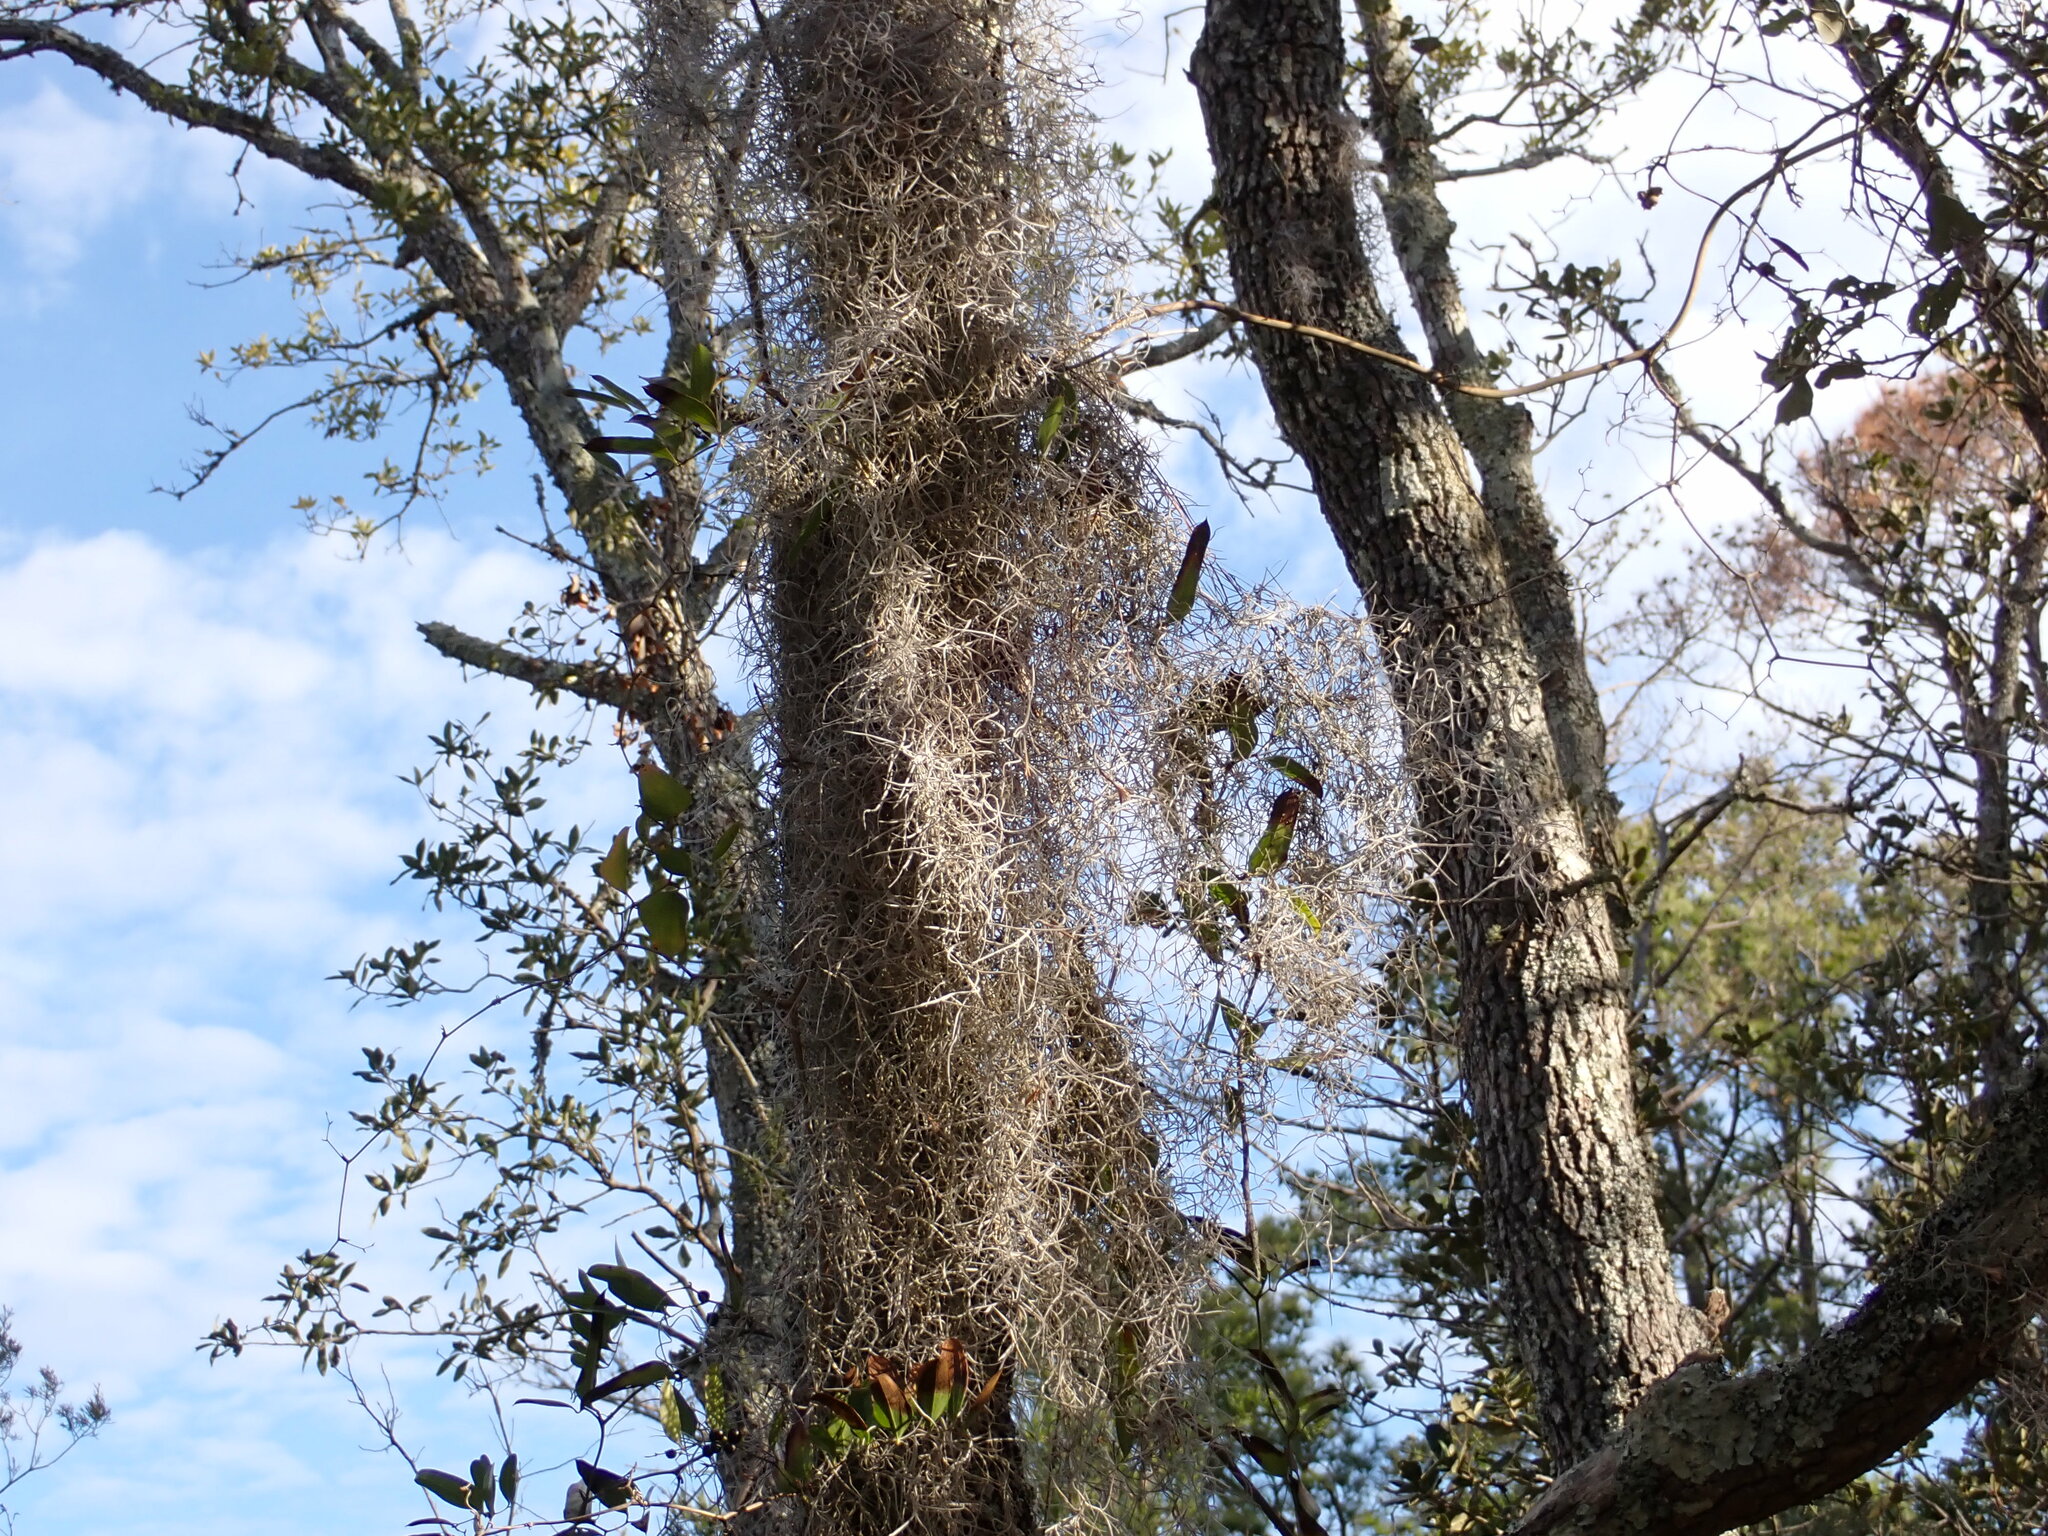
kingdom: Plantae
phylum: Tracheophyta
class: Liliopsida
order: Poales
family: Bromeliaceae
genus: Tillandsia
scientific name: Tillandsia usneoides
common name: Spanish moss
